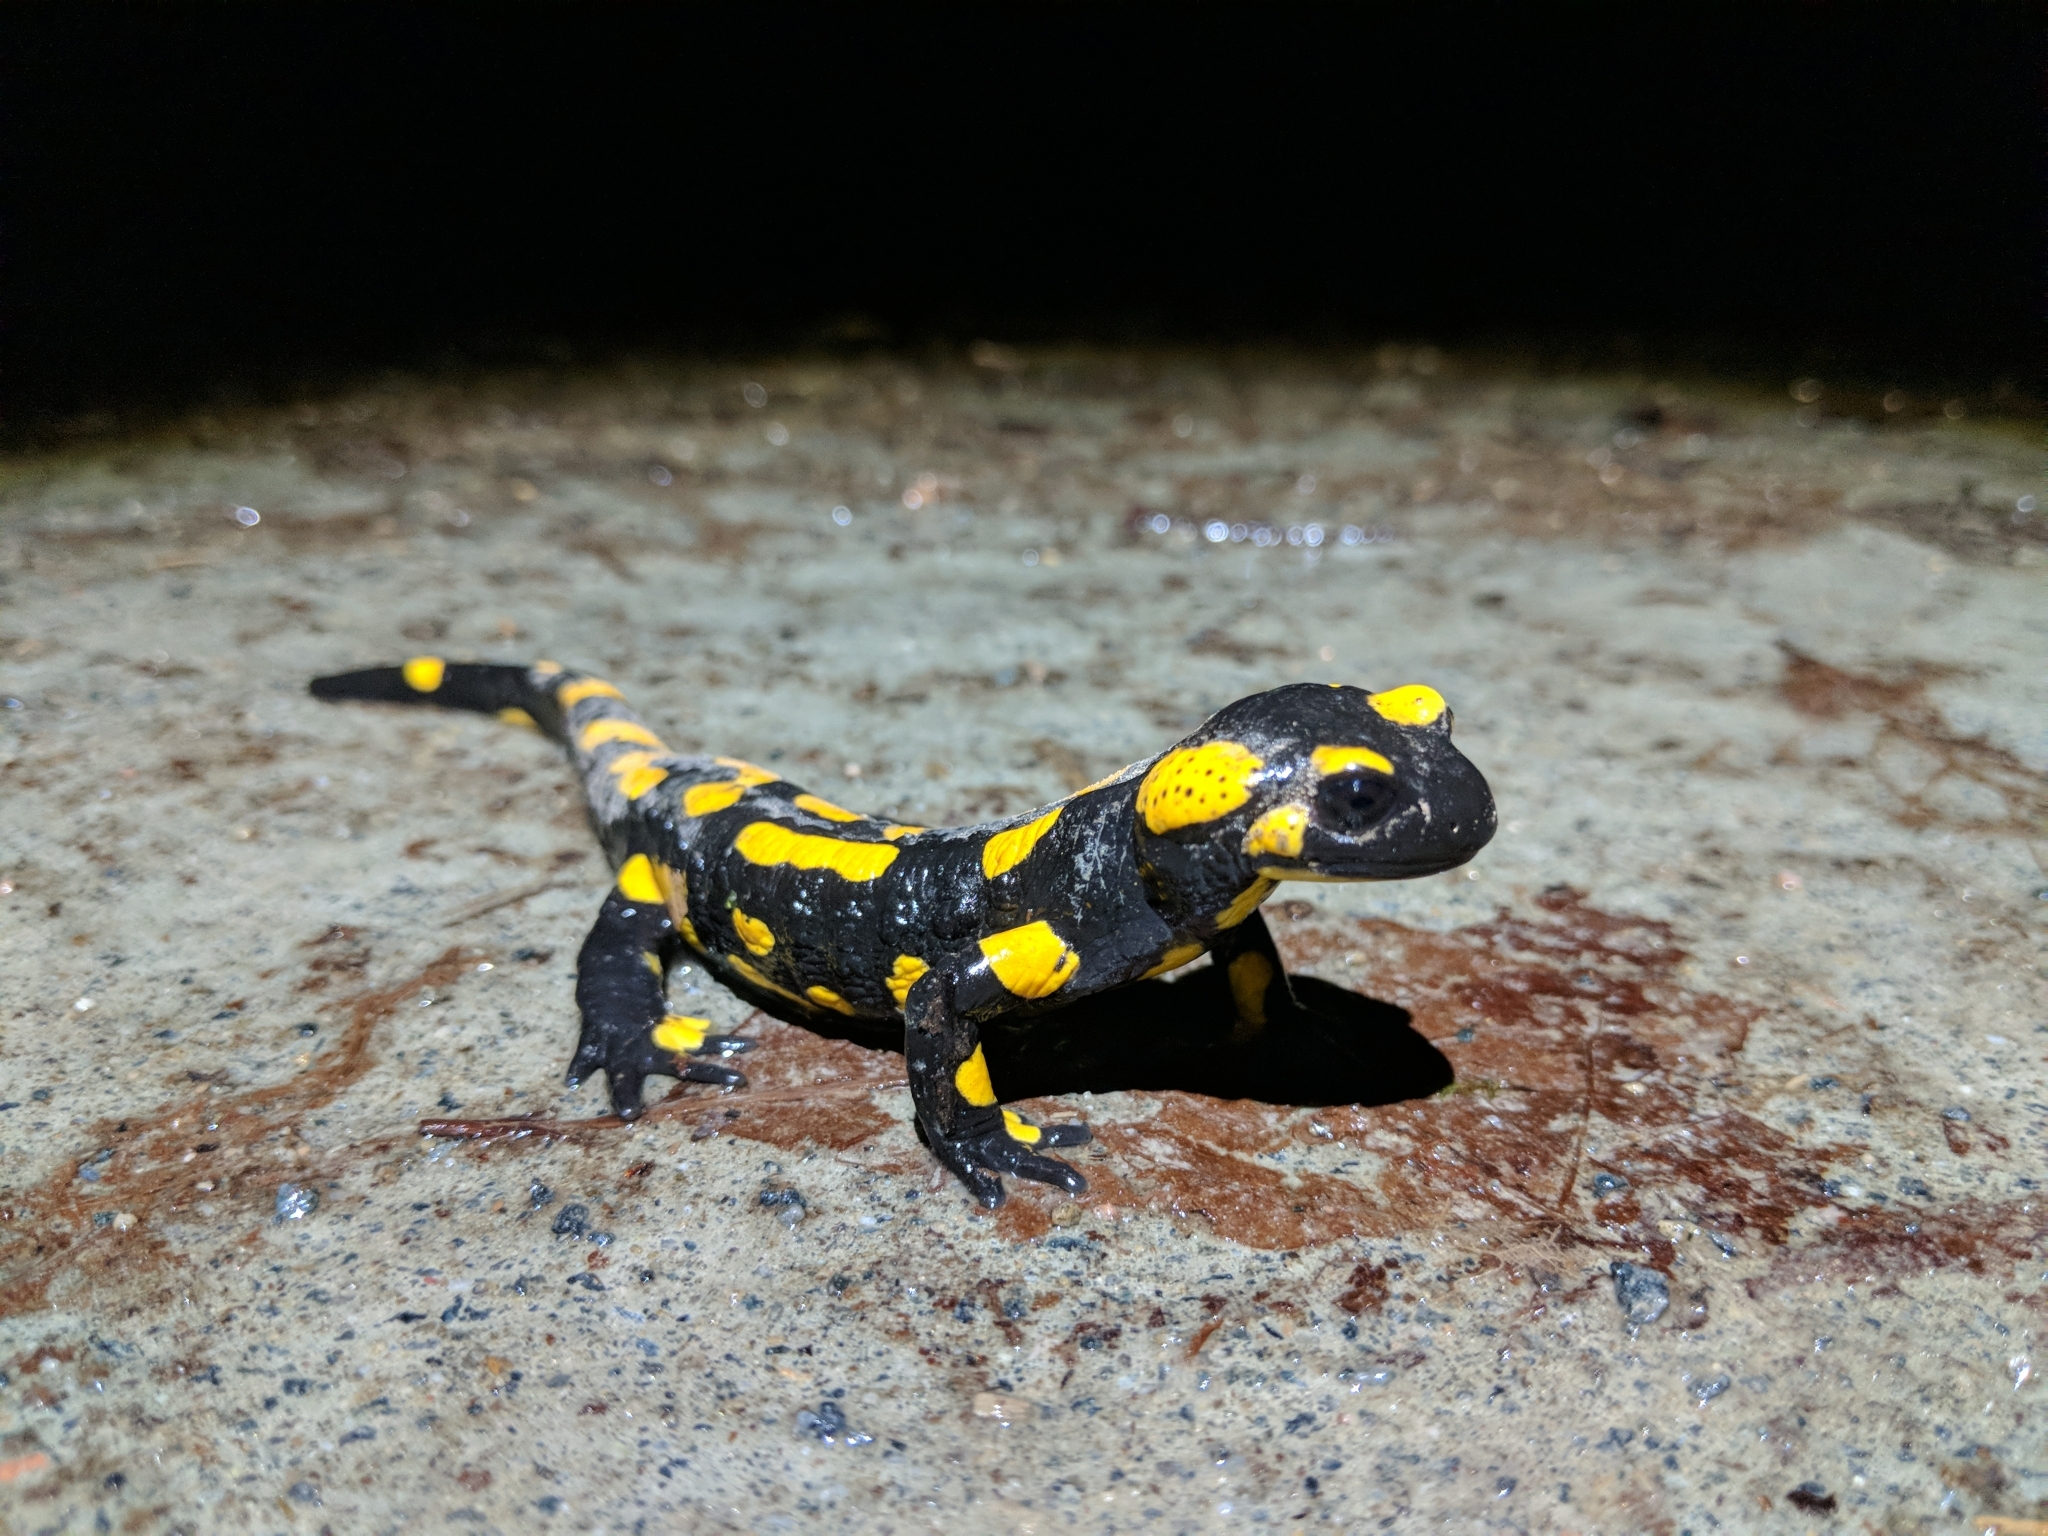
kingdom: Animalia
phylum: Chordata
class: Amphibia
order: Caudata
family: Salamandridae
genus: Salamandra
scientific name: Salamandra salamandra
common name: Fire salamander
